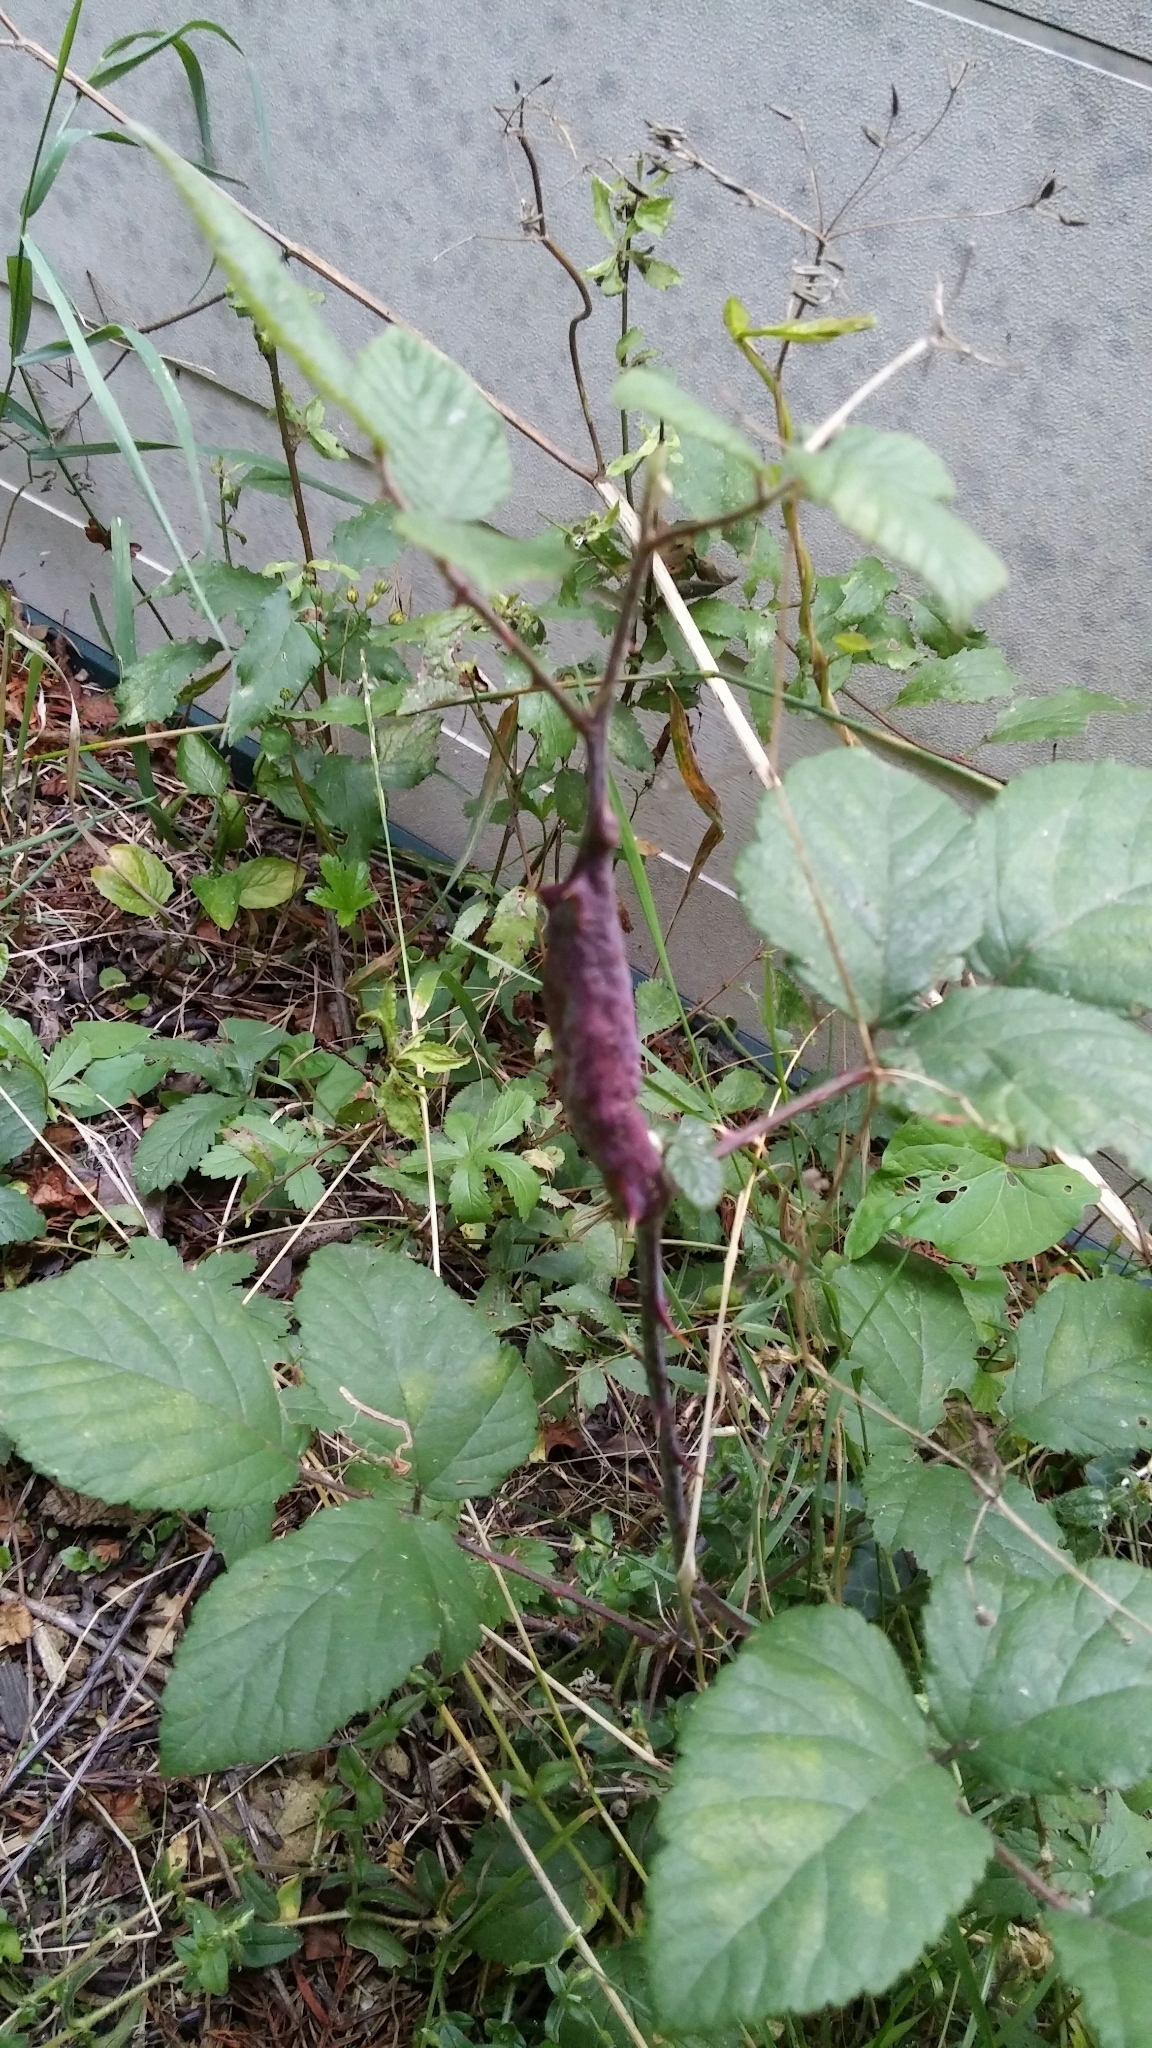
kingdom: Animalia
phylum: Arthropoda
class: Insecta
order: Hymenoptera
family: Cynipidae
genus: Diastrophus
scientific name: Diastrophus rubi
